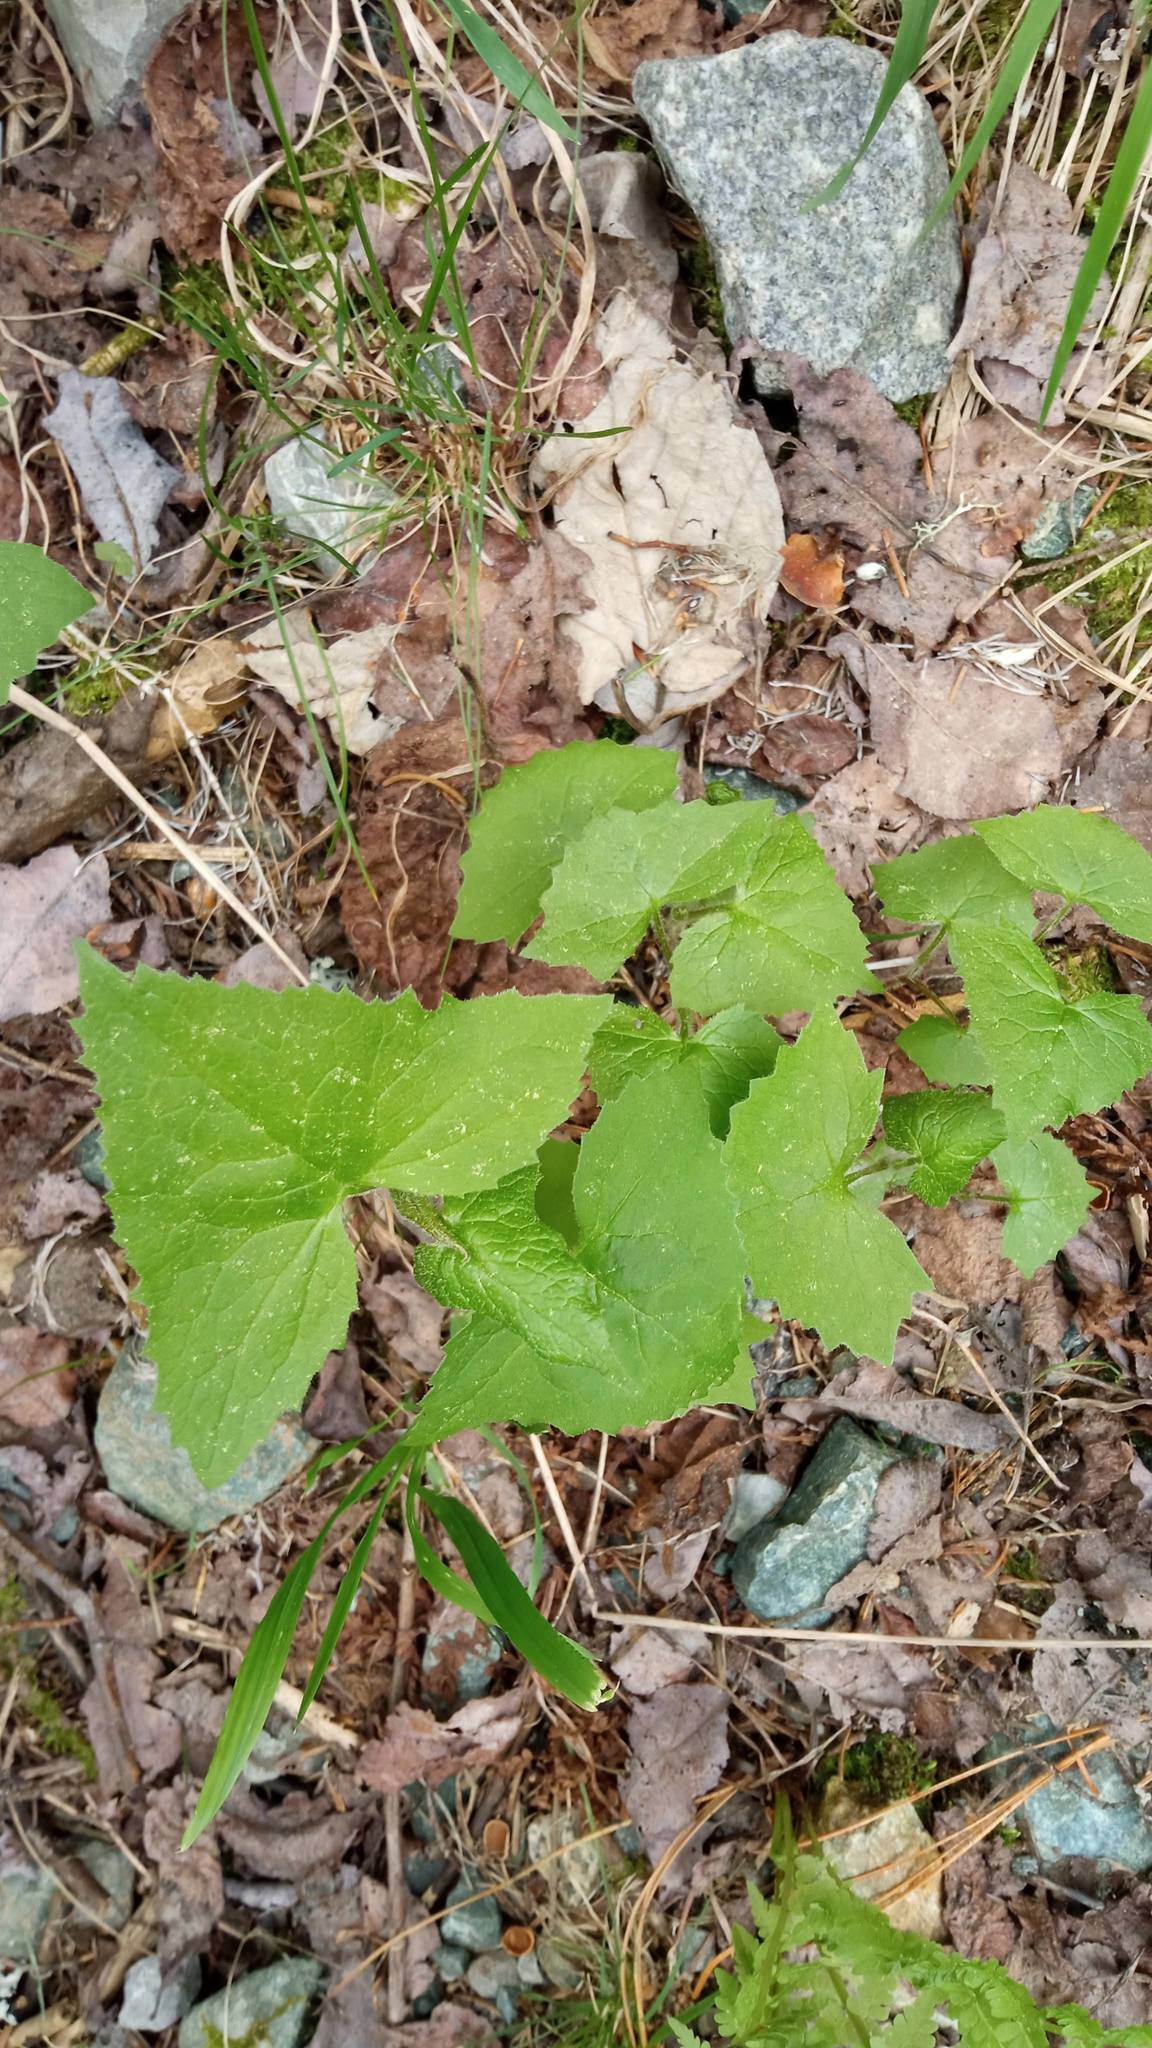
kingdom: Plantae
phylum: Tracheophyta
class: Magnoliopsida
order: Asterales
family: Asteraceae
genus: Parasenecio
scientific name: Parasenecio hastatus
